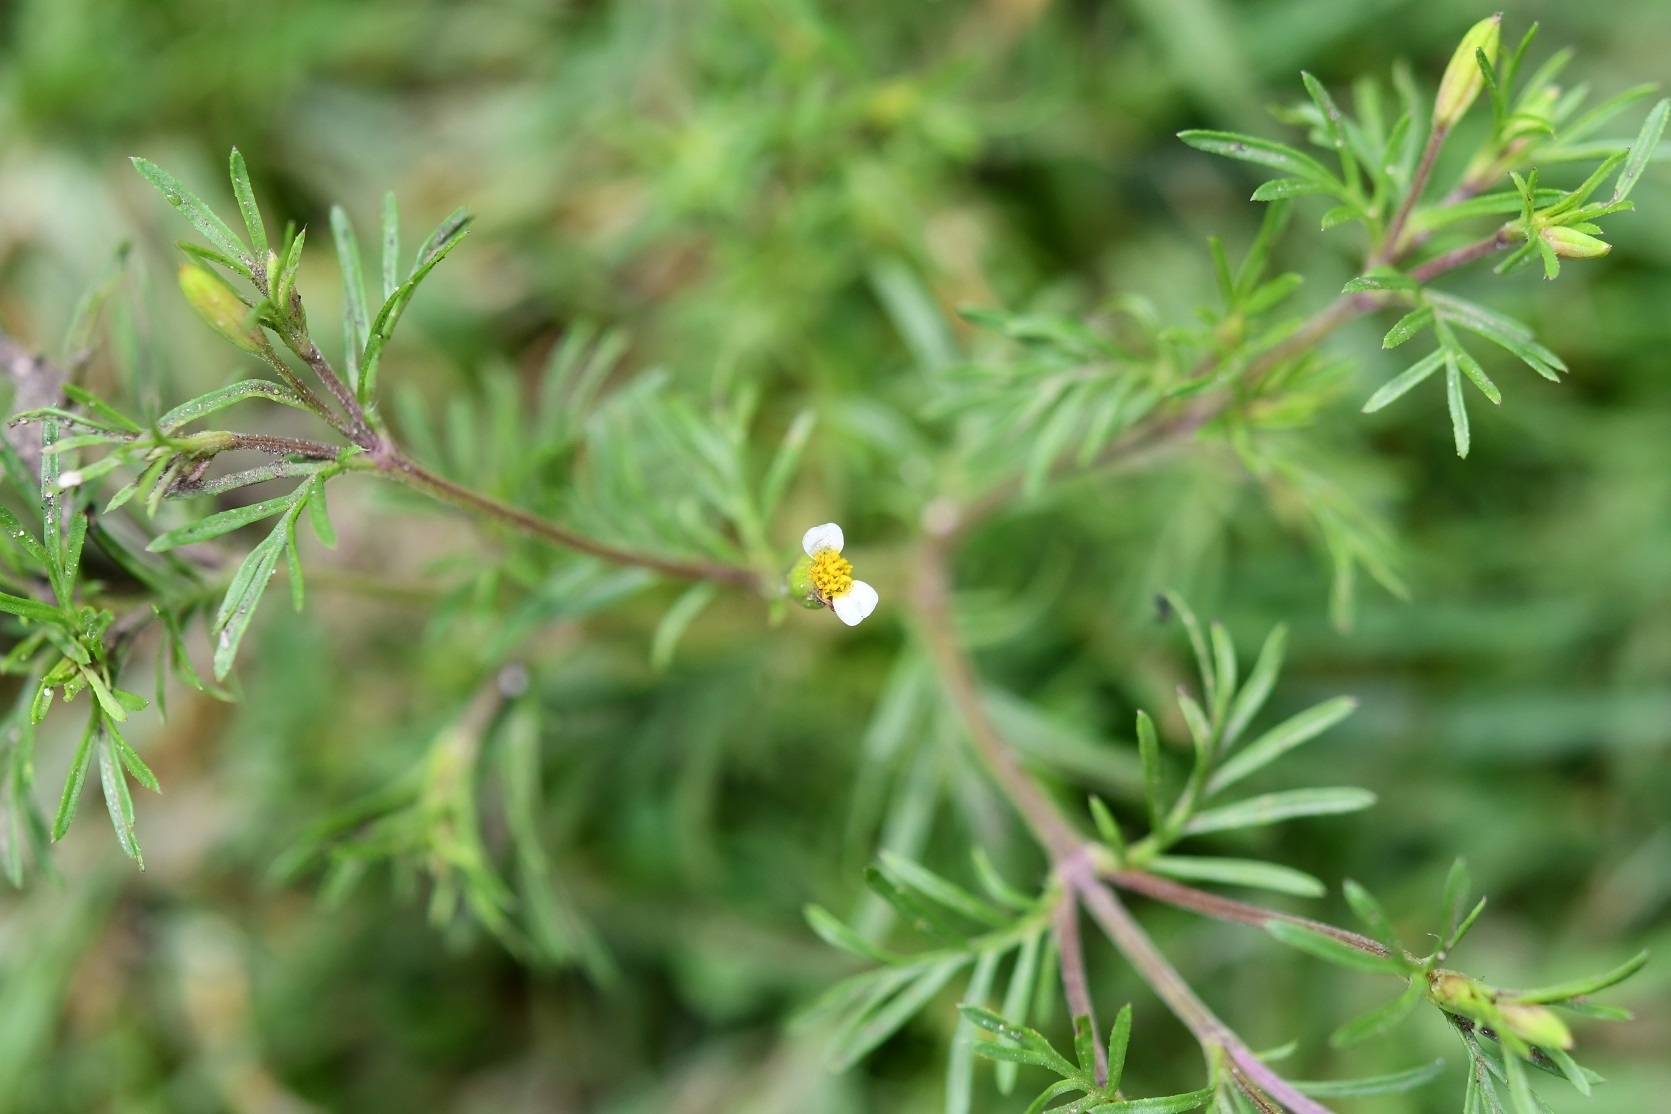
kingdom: Plantae
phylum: Tracheophyta
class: Magnoliopsida
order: Asterales
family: Asteraceae
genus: Tagetes
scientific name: Tagetes filifolia
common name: Lesser marigold
